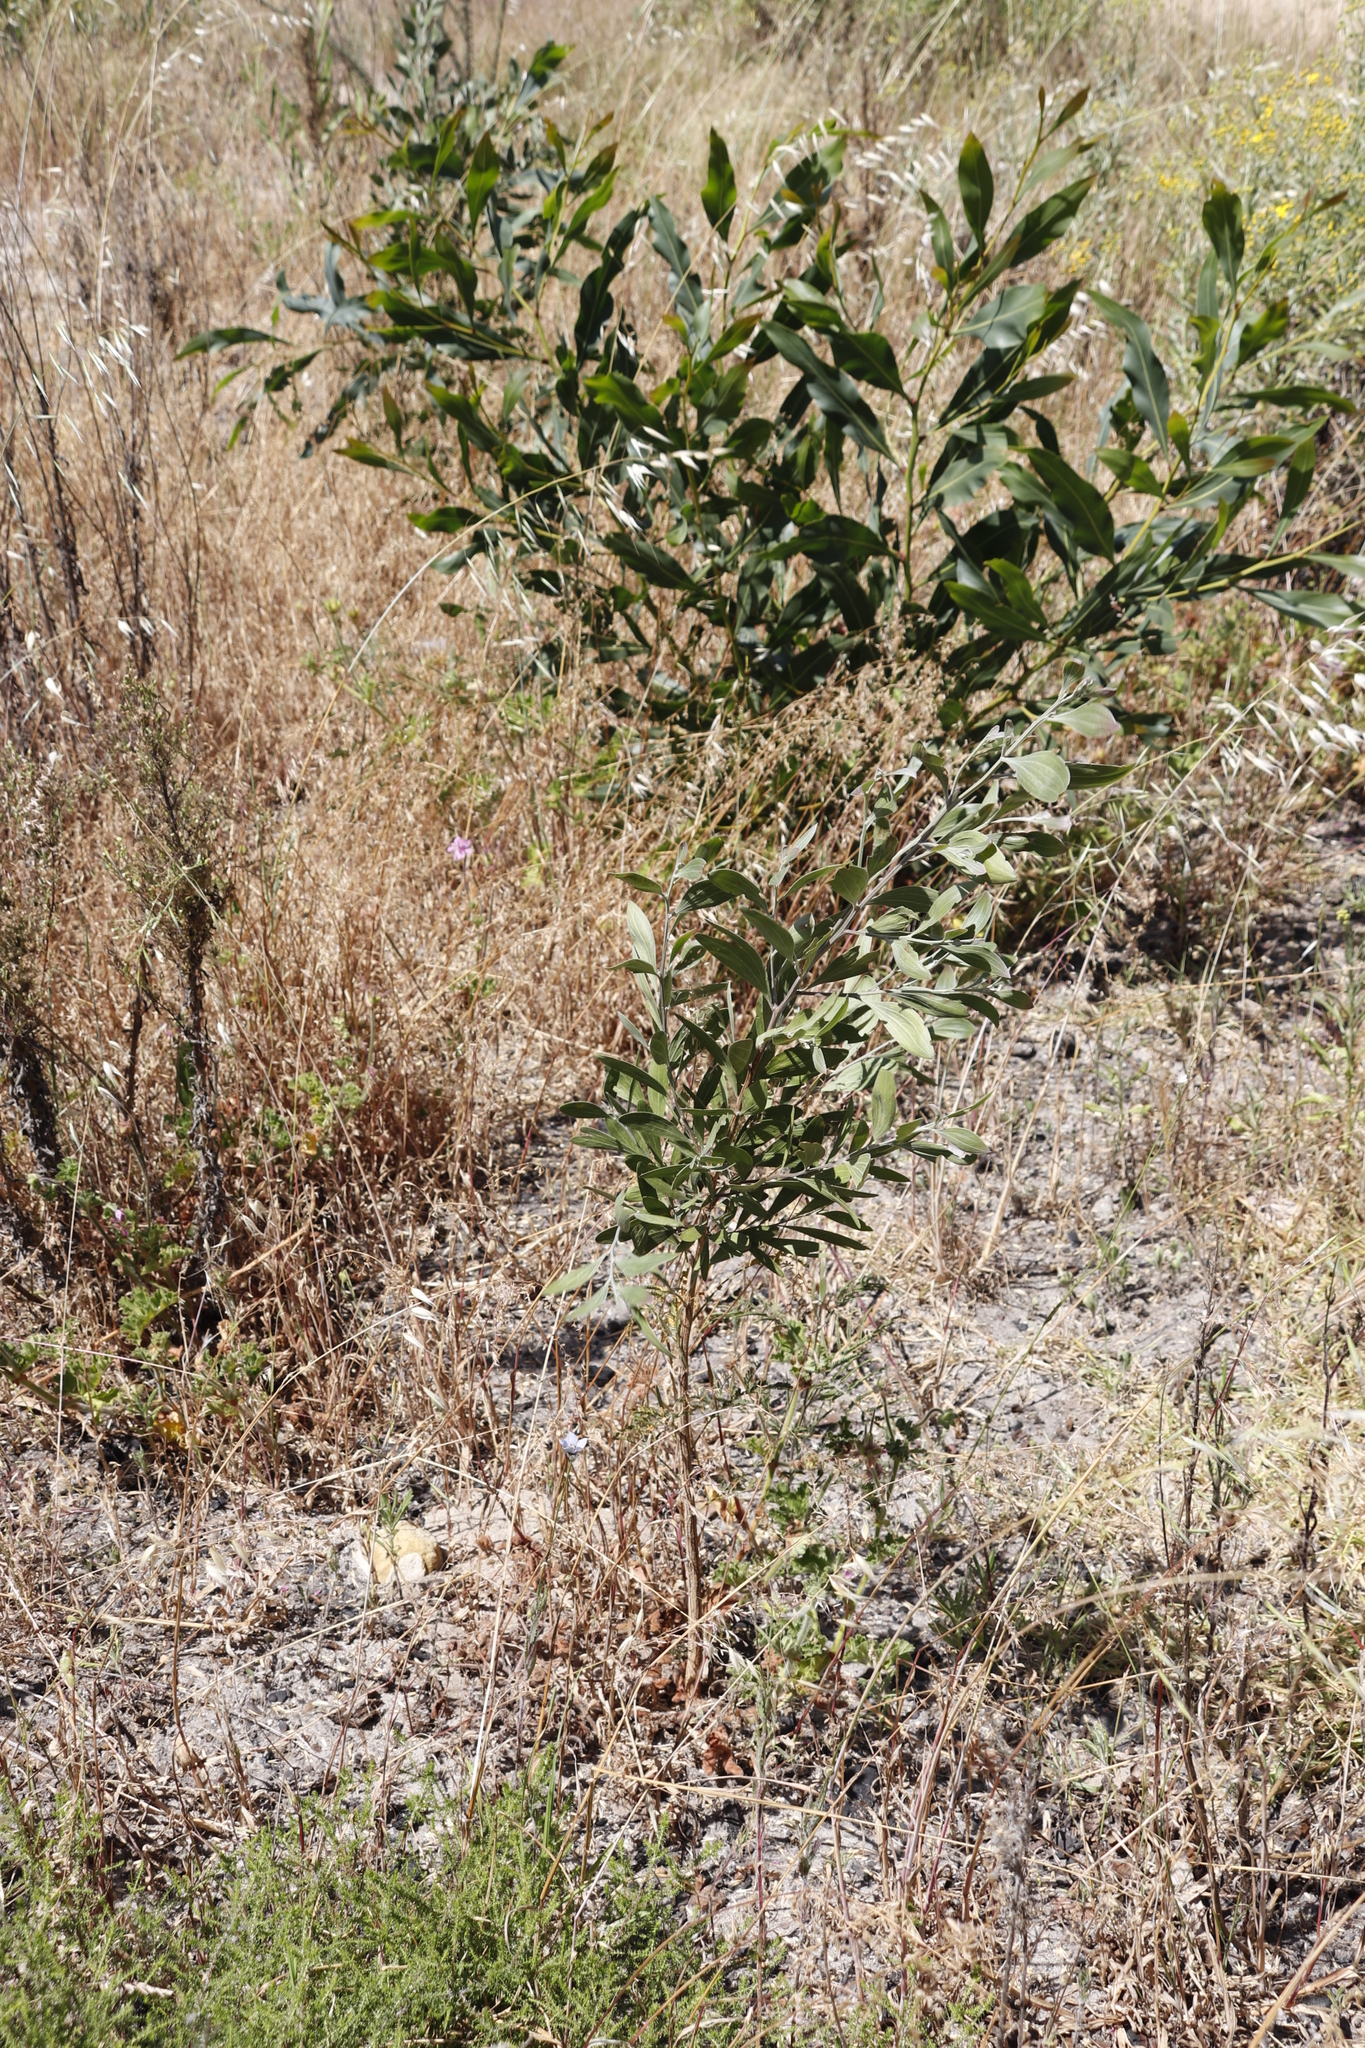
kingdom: Plantae
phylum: Tracheophyta
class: Magnoliopsida
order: Fabales
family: Fabaceae
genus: Acacia
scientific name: Acacia melanoxylon
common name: Blackwood
